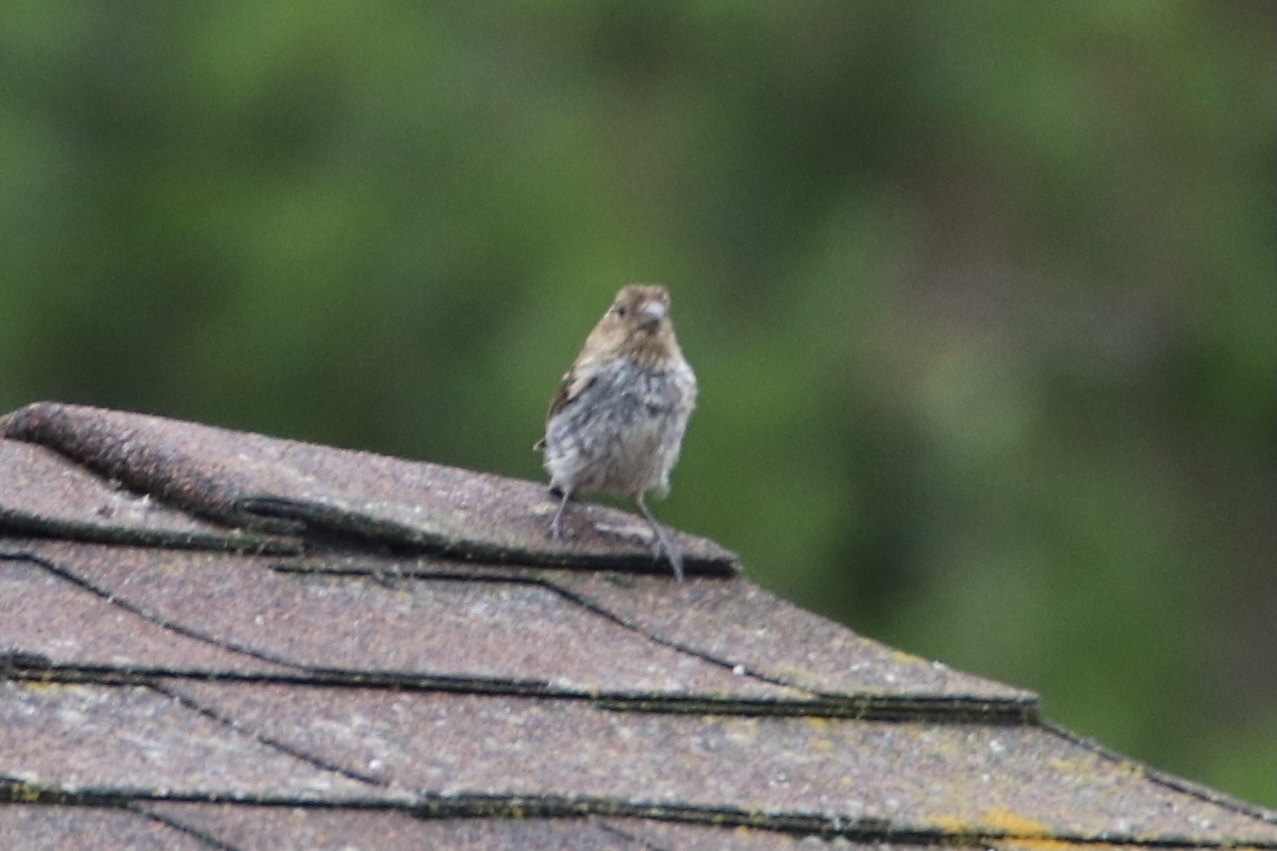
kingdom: Animalia
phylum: Chordata
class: Aves
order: Passeriformes
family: Fringillidae
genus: Haemorhous
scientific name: Haemorhous mexicanus
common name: House finch
